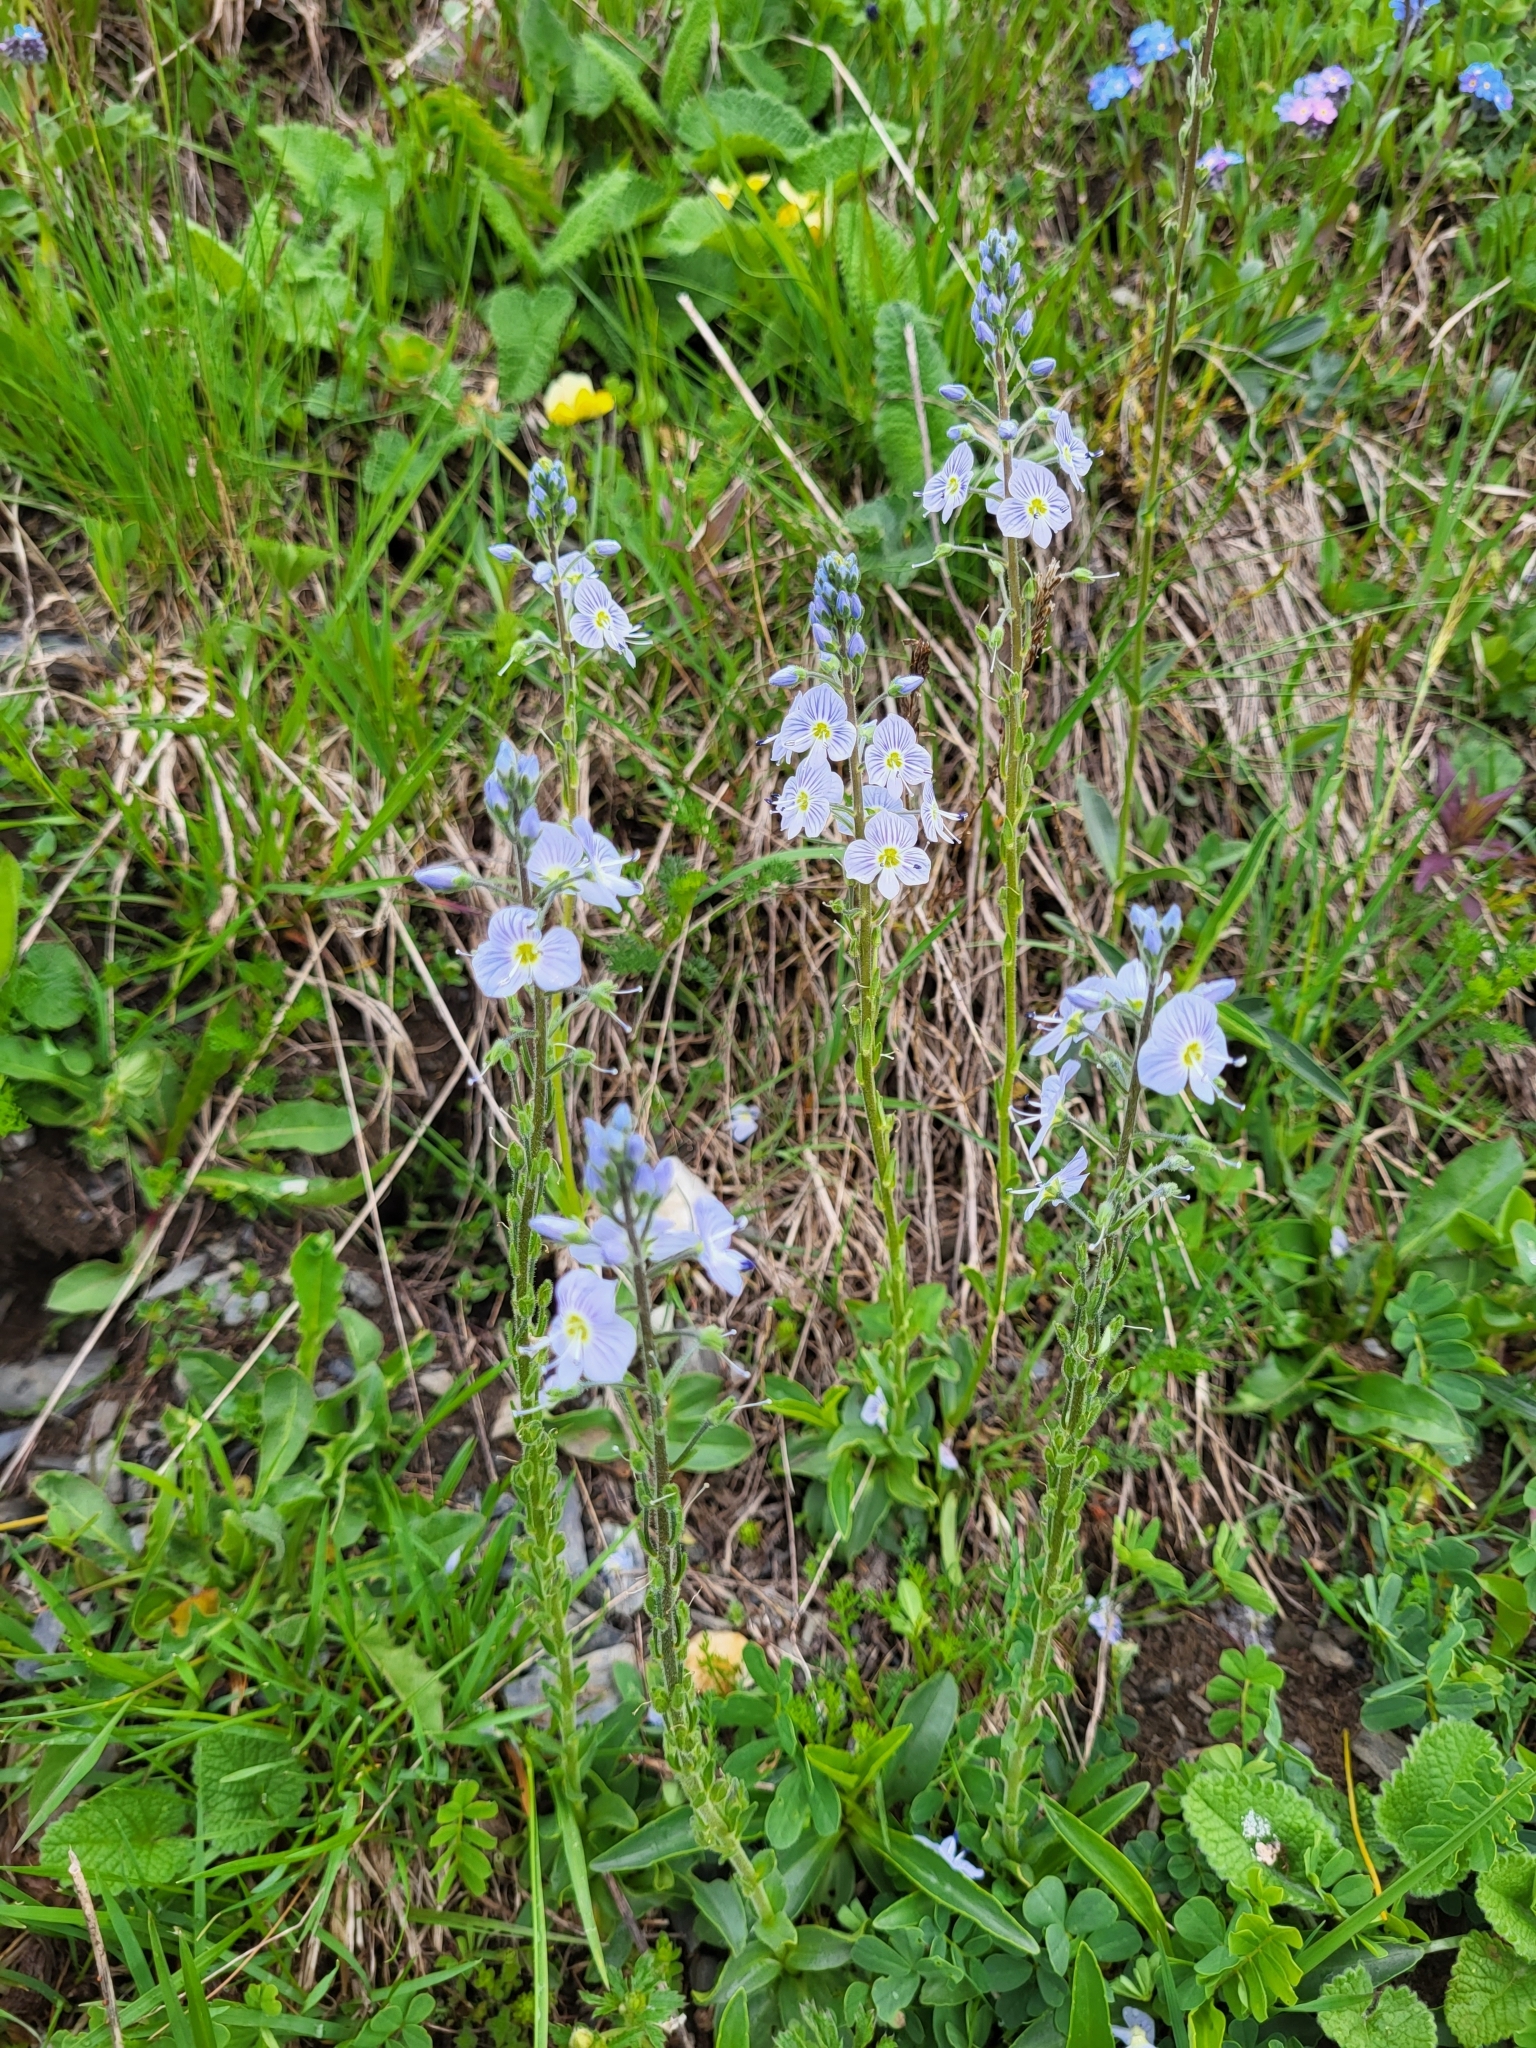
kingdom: Plantae
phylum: Tracheophyta
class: Magnoliopsida
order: Lamiales
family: Plantaginaceae
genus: Veronica
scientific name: Veronica gentianoides
